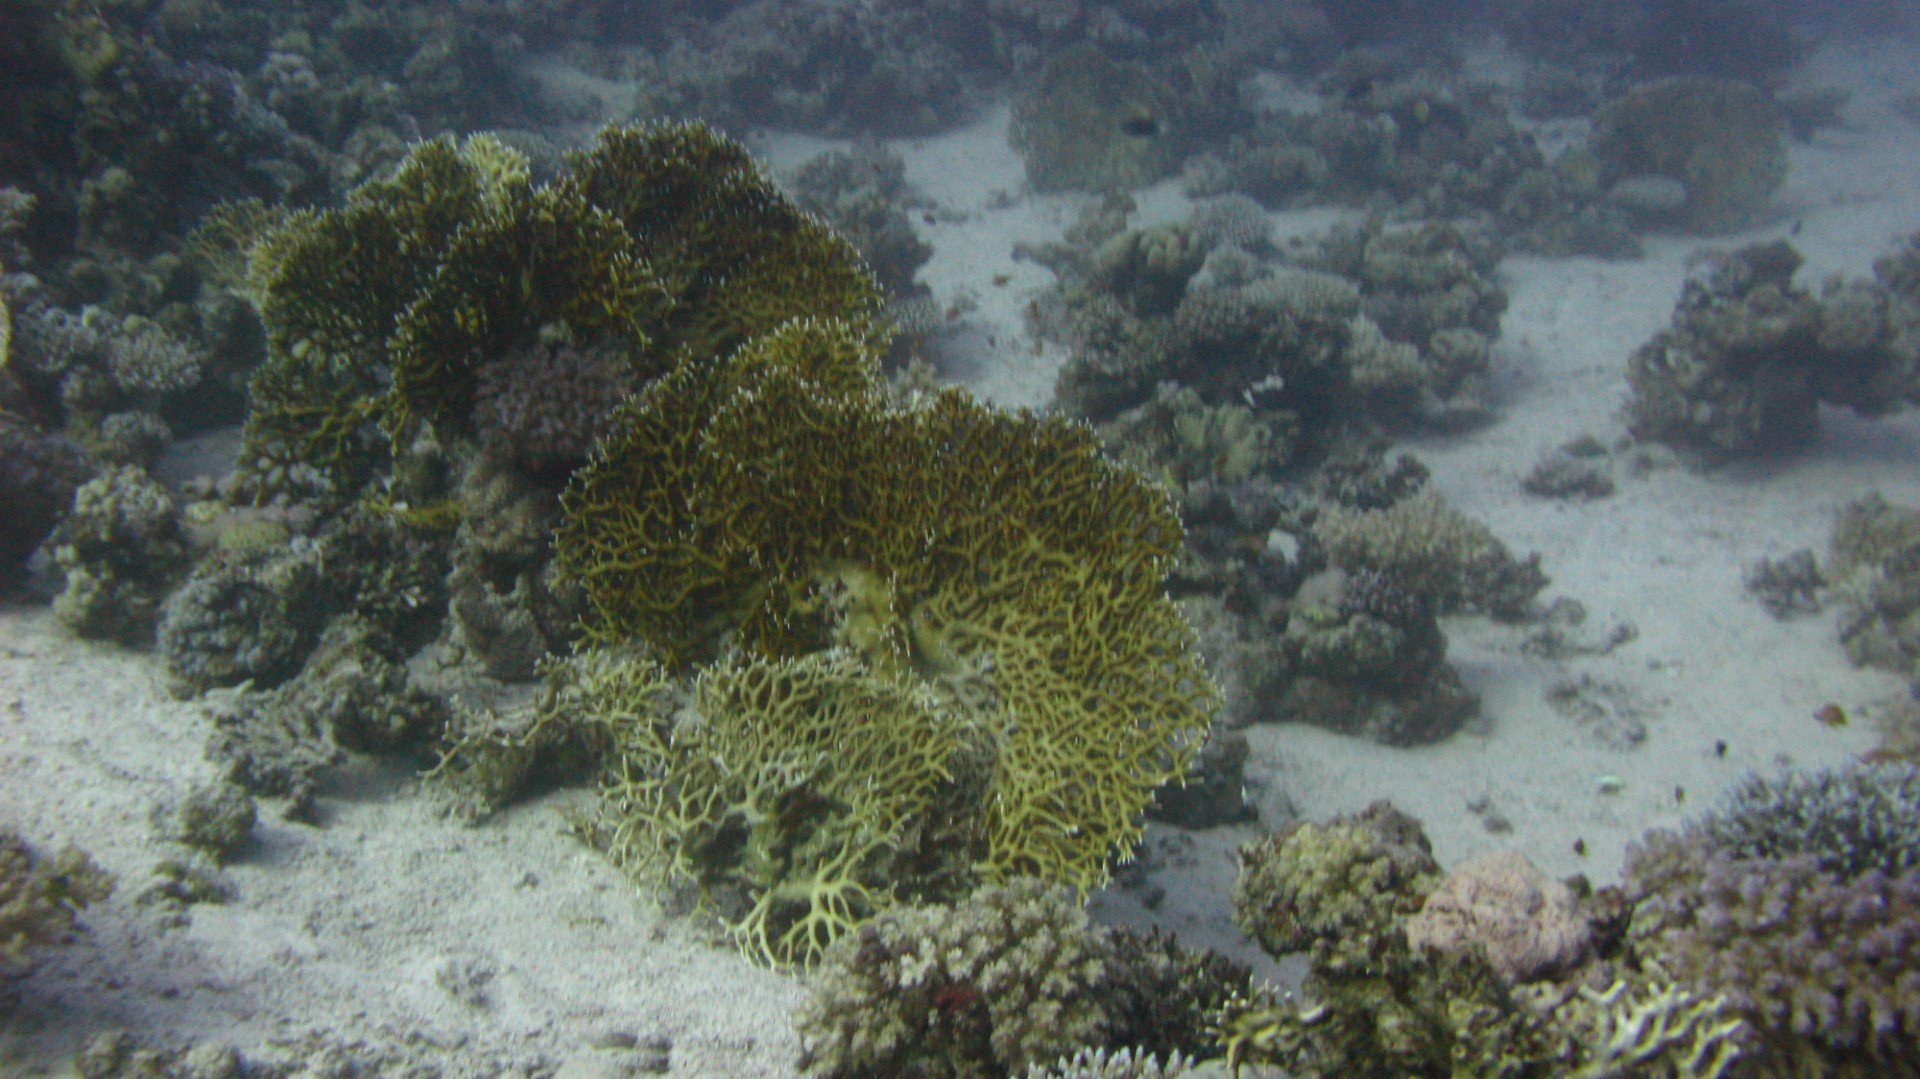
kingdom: Animalia
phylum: Cnidaria
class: Hydrozoa
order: Anthoathecata
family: Milleporidae
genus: Millepora
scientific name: Millepora dichotoma
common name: Ramified fire coral
